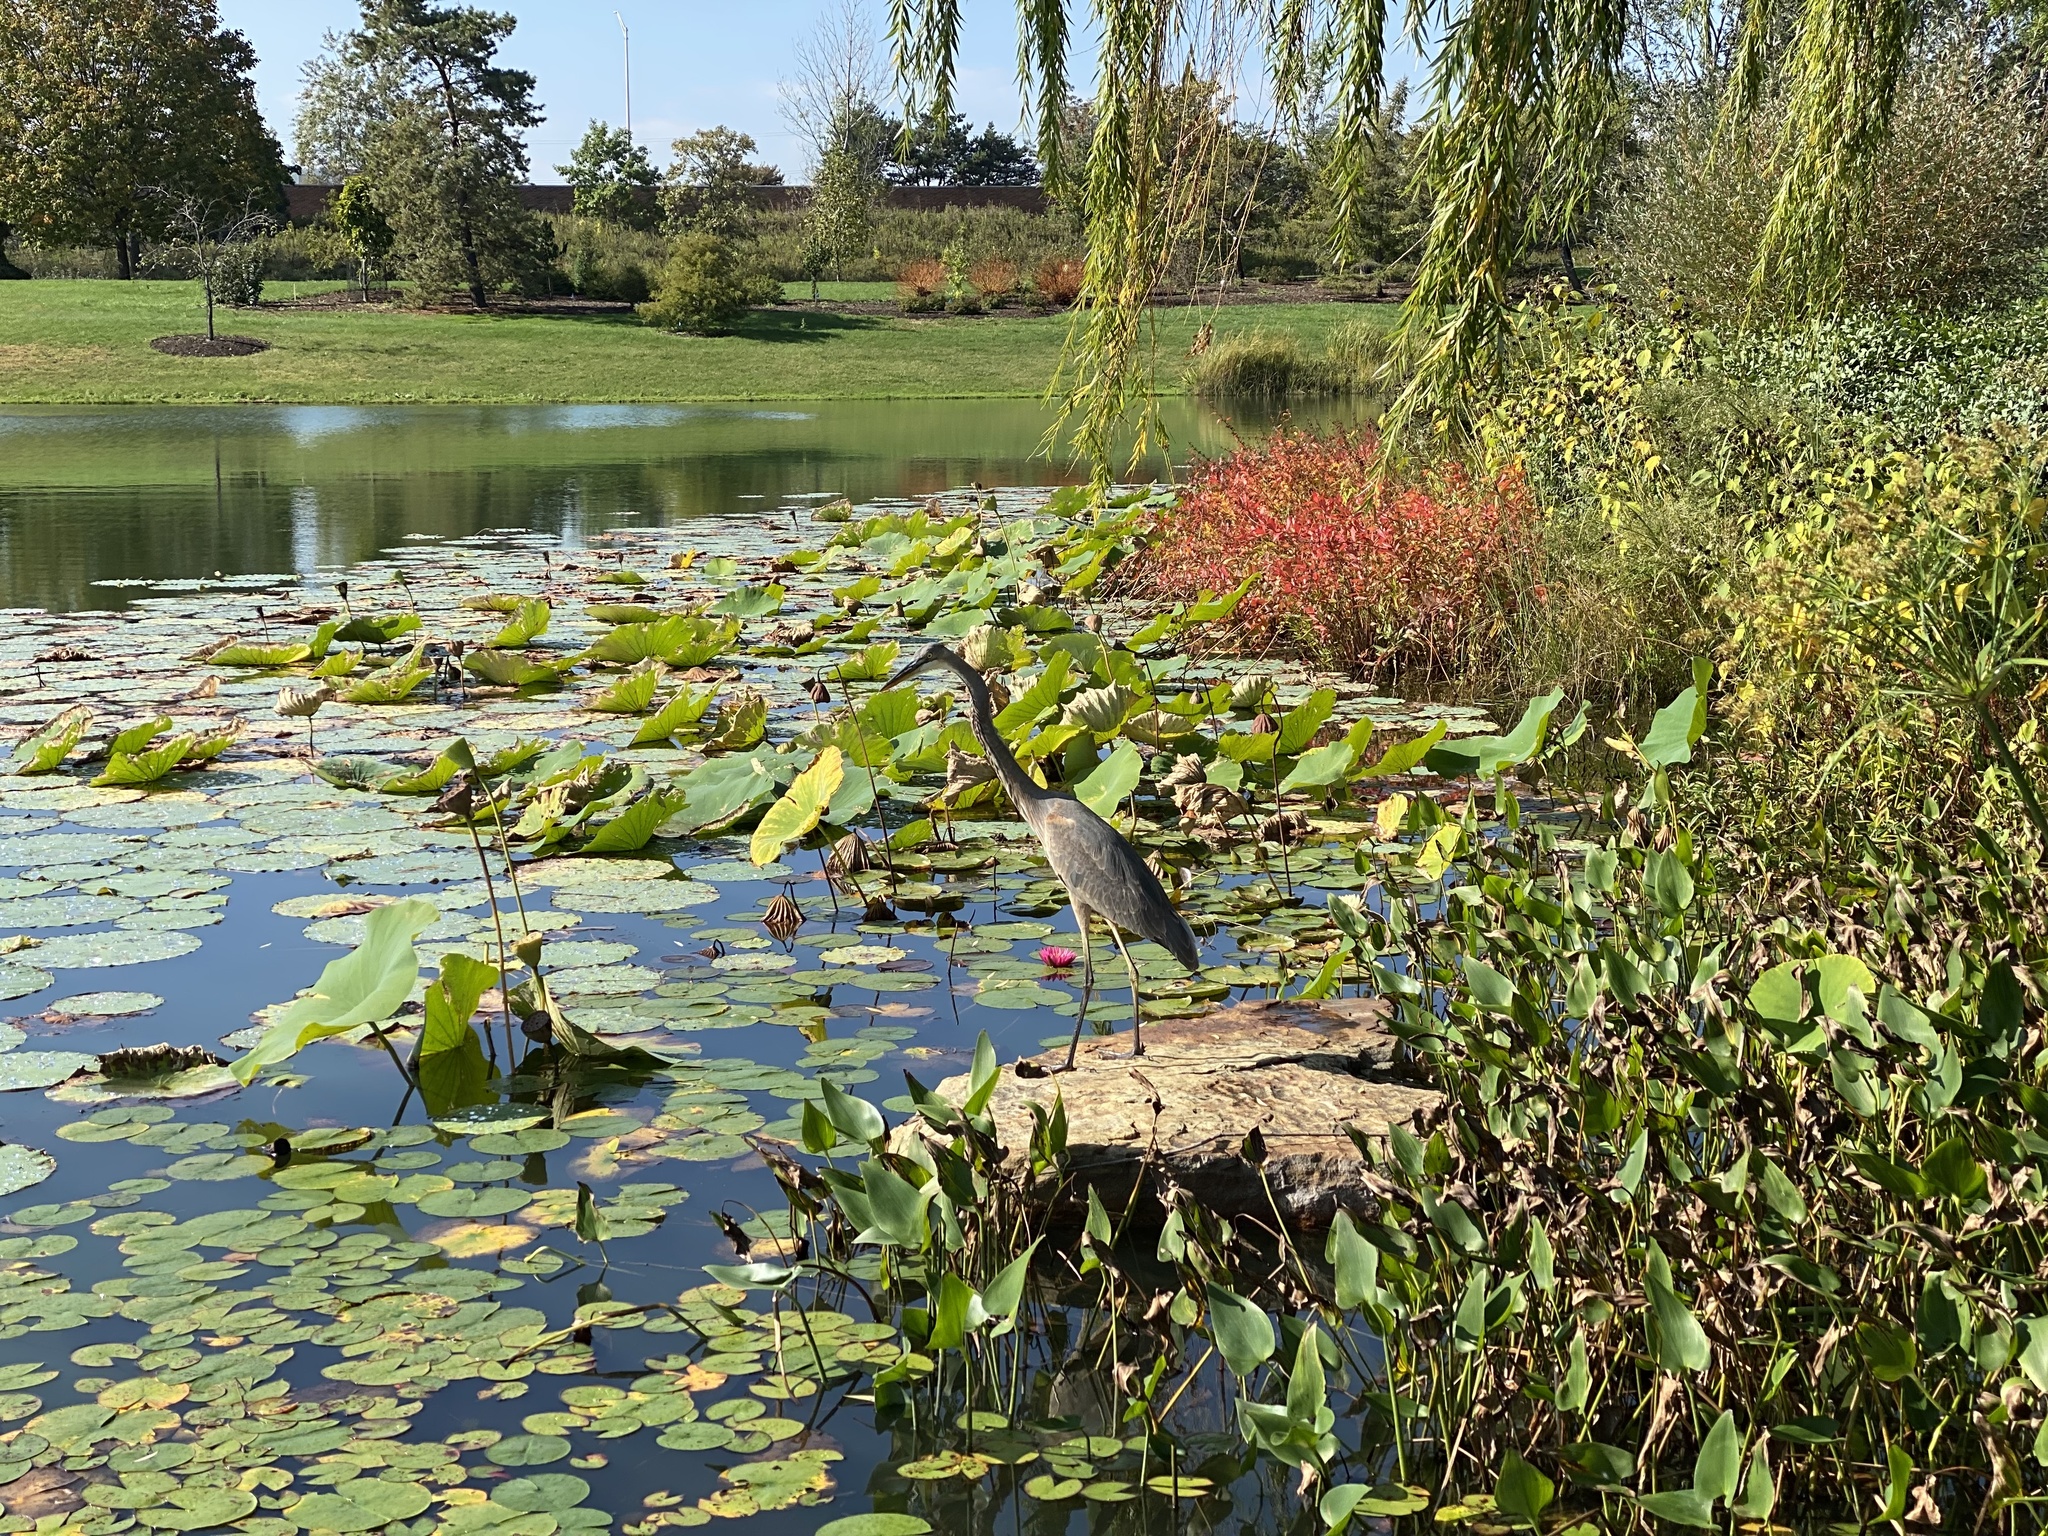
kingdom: Animalia
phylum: Chordata
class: Aves
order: Pelecaniformes
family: Ardeidae
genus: Ardea
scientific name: Ardea herodias
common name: Great blue heron
